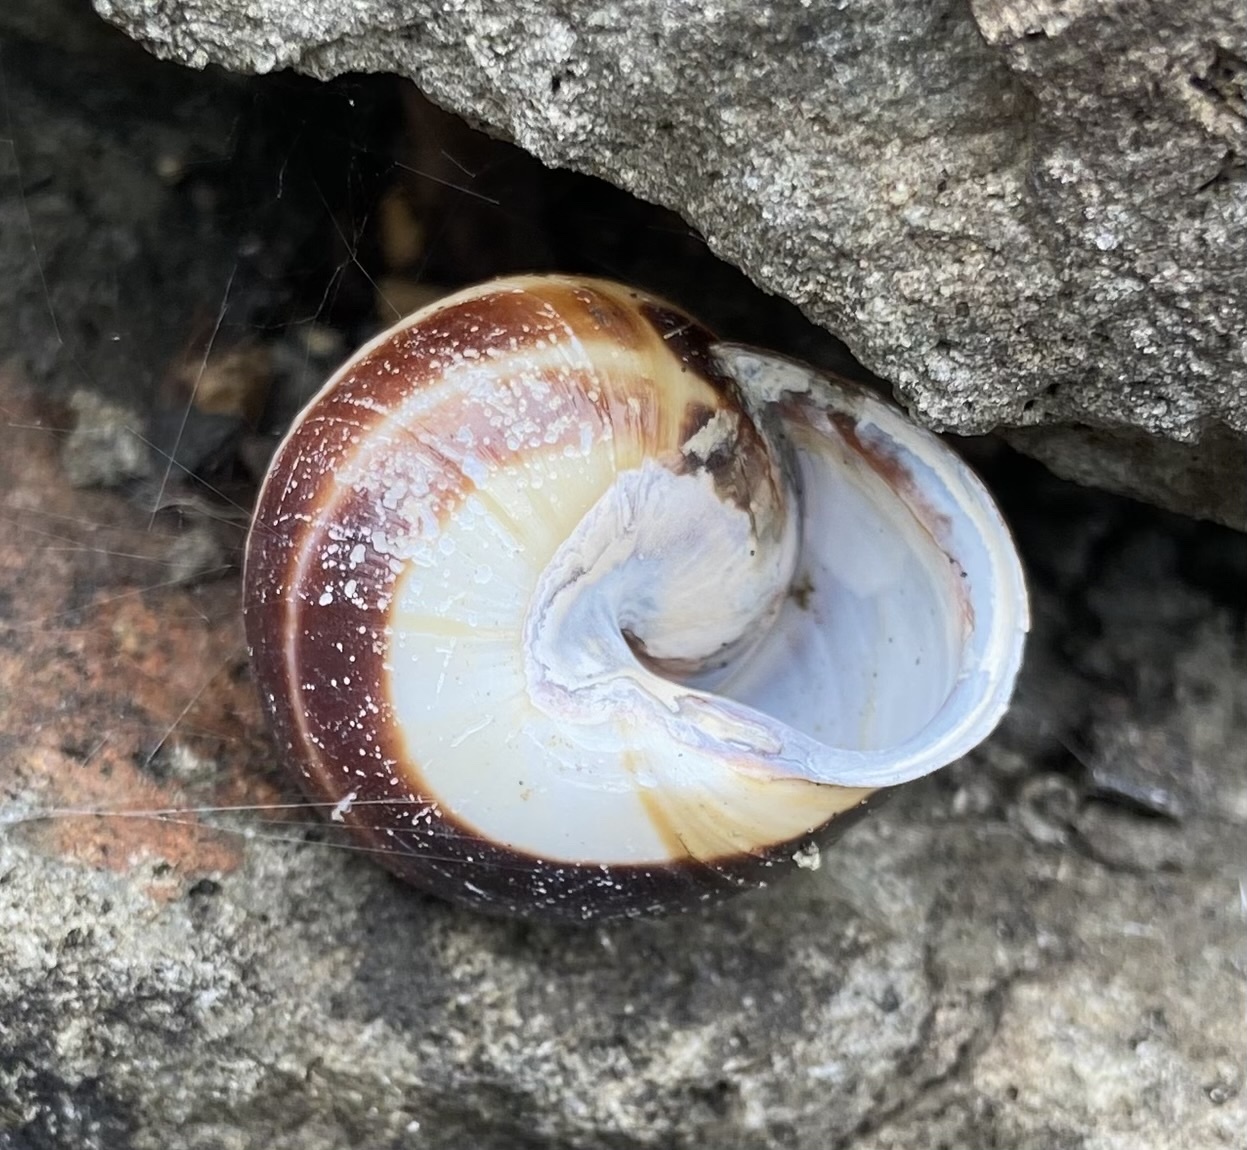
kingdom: Animalia
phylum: Mollusca
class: Gastropoda
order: Stylommatophora
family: Helicidae
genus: Cepaea
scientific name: Cepaea nemoralis
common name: Grovesnail
